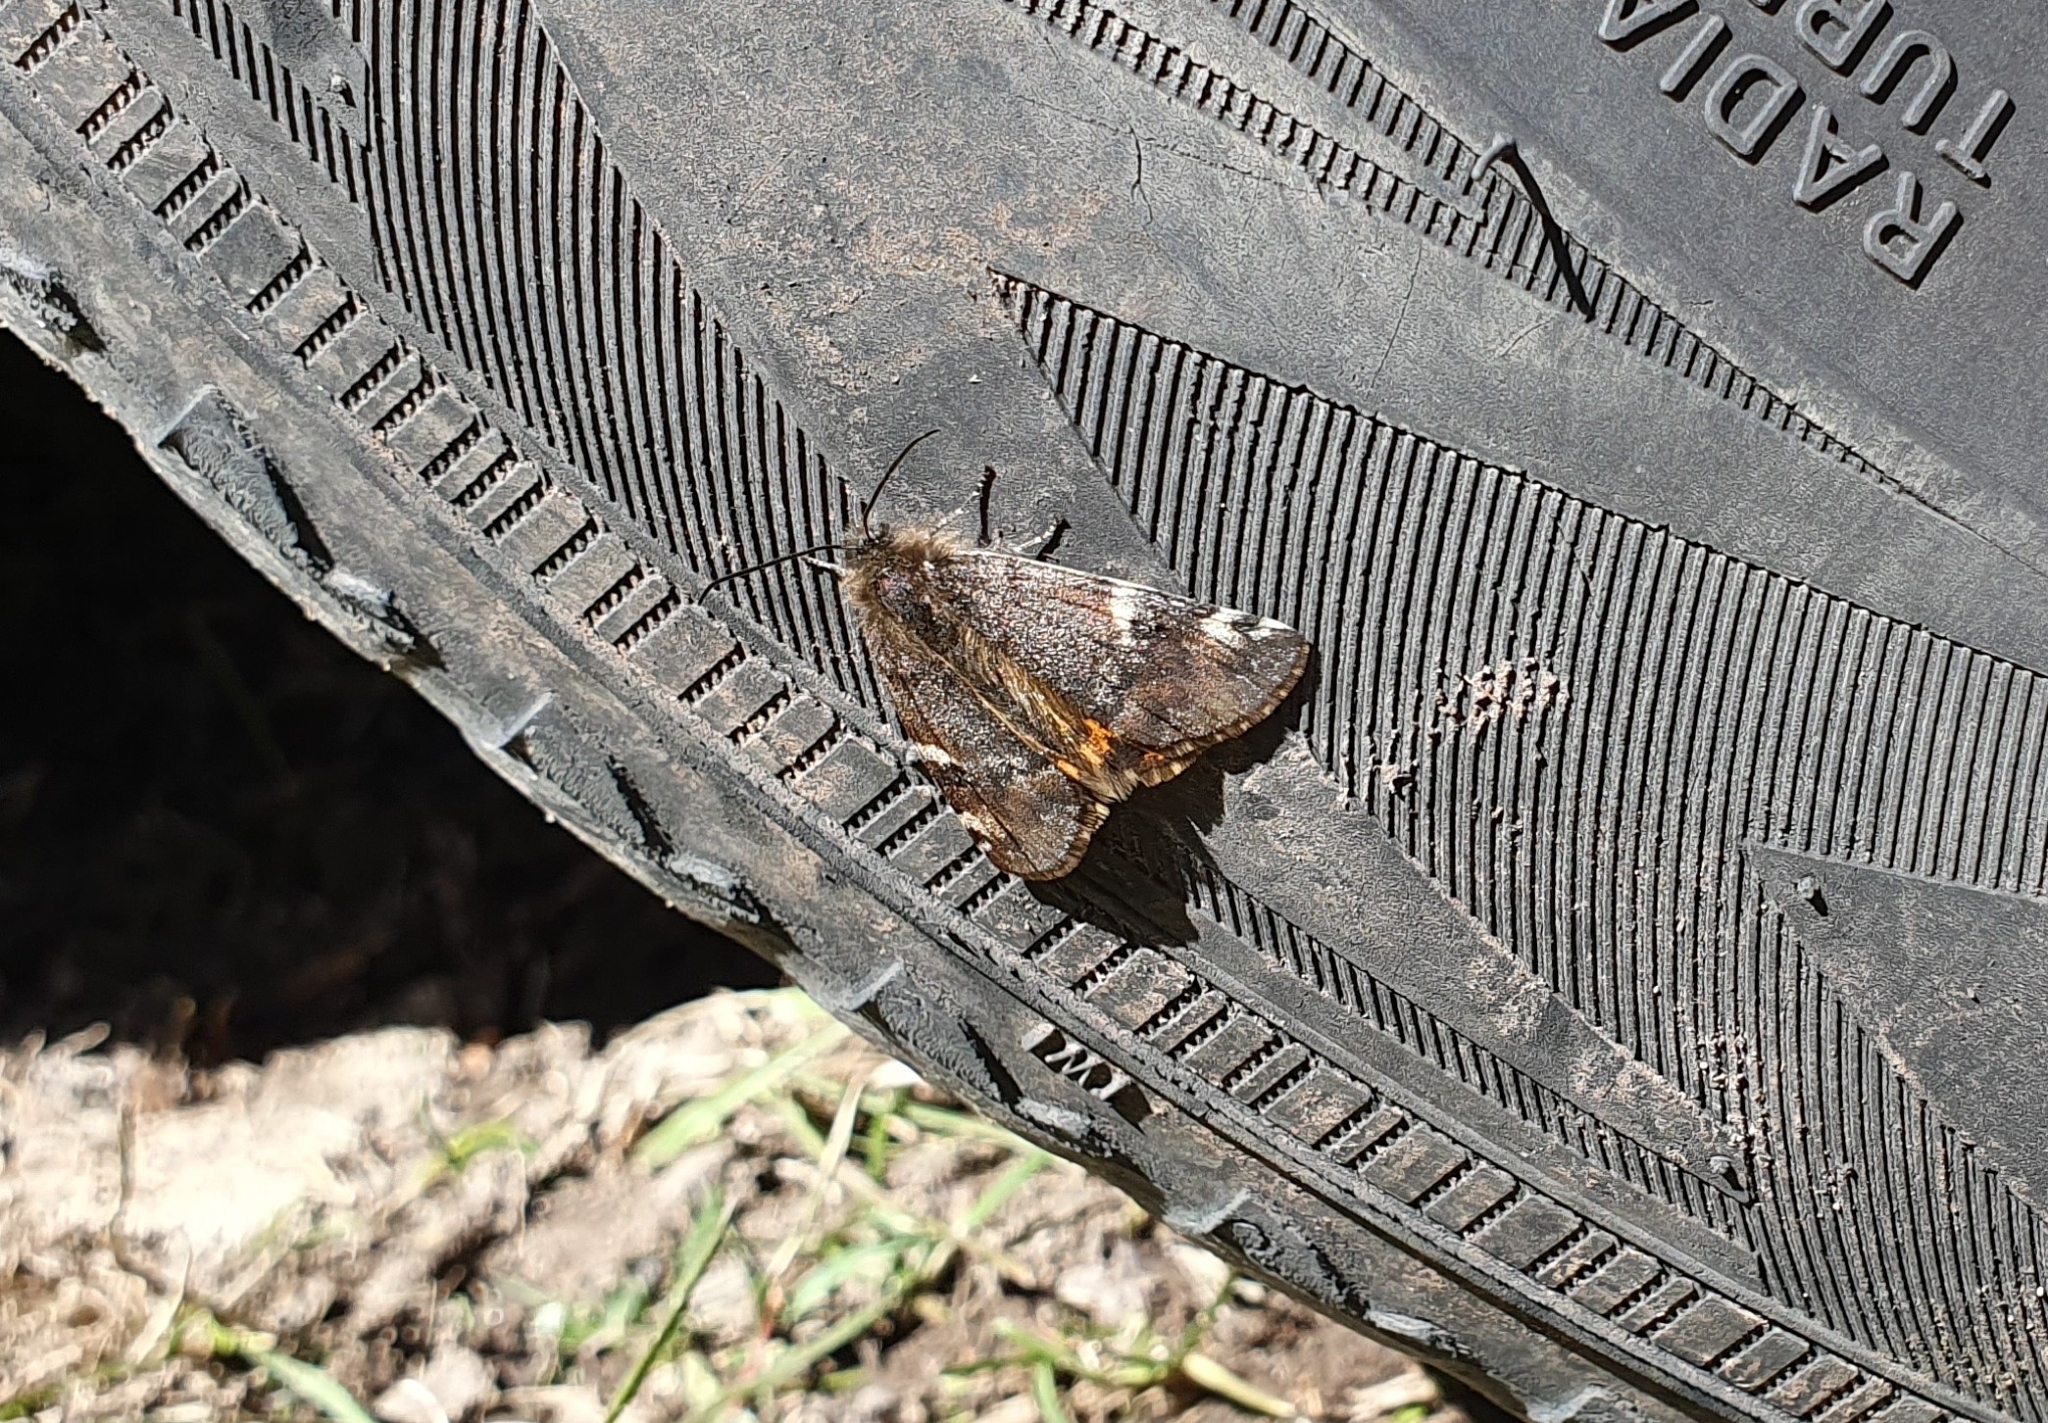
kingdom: Animalia
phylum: Arthropoda
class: Insecta
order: Lepidoptera
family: Geometridae
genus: Archiearis
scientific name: Archiearis parthenias
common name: Orange underwing
